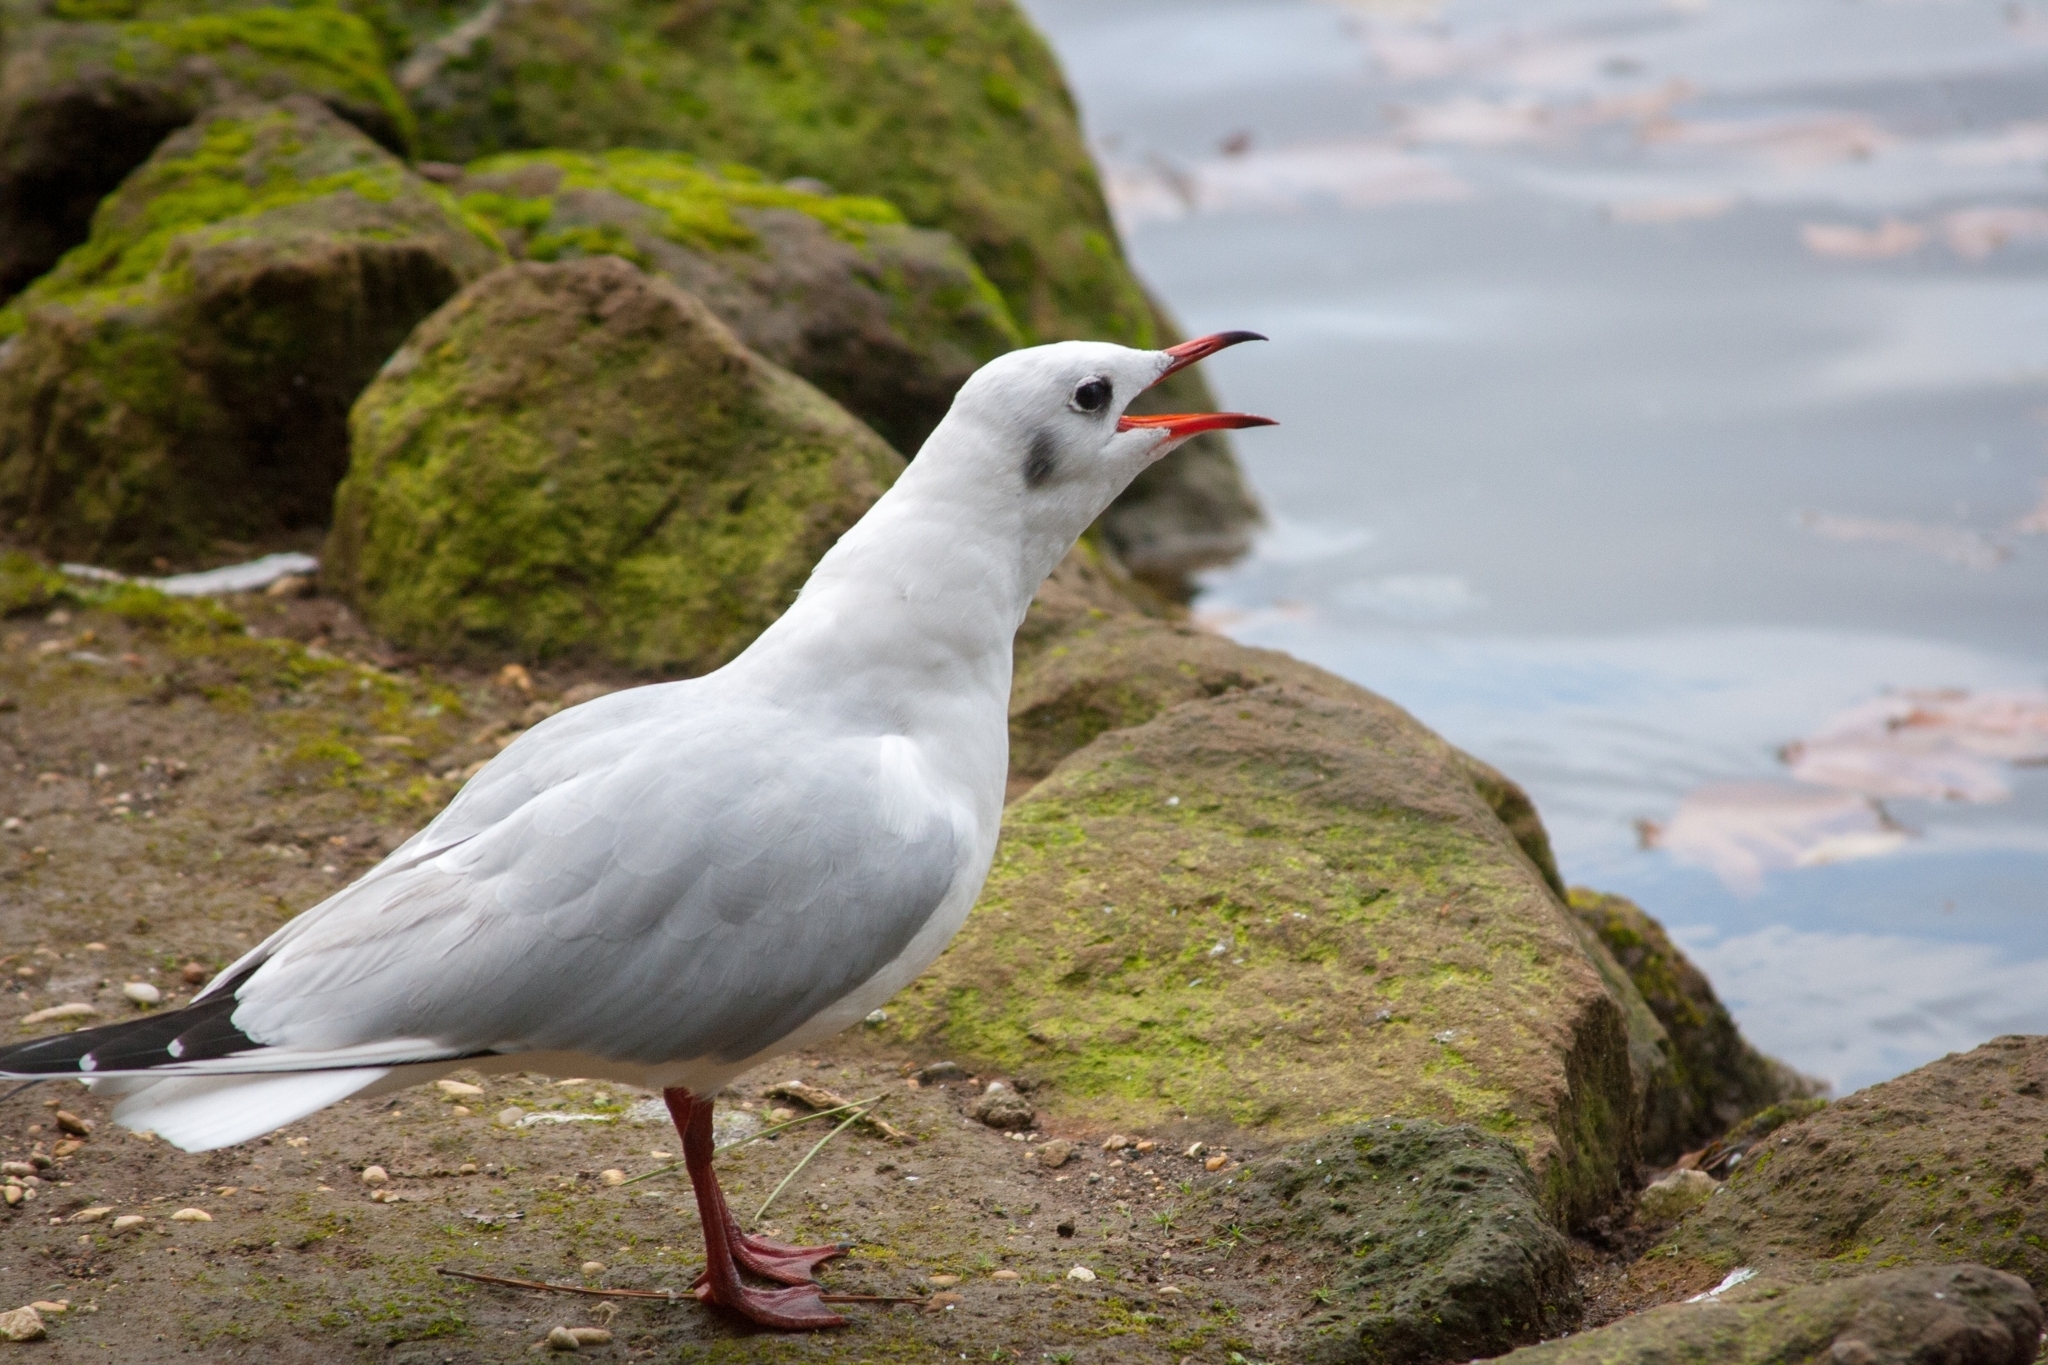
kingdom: Animalia
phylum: Chordata
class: Aves
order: Charadriiformes
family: Laridae
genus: Chroicocephalus
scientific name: Chroicocephalus ridibundus
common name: Black-headed gull
